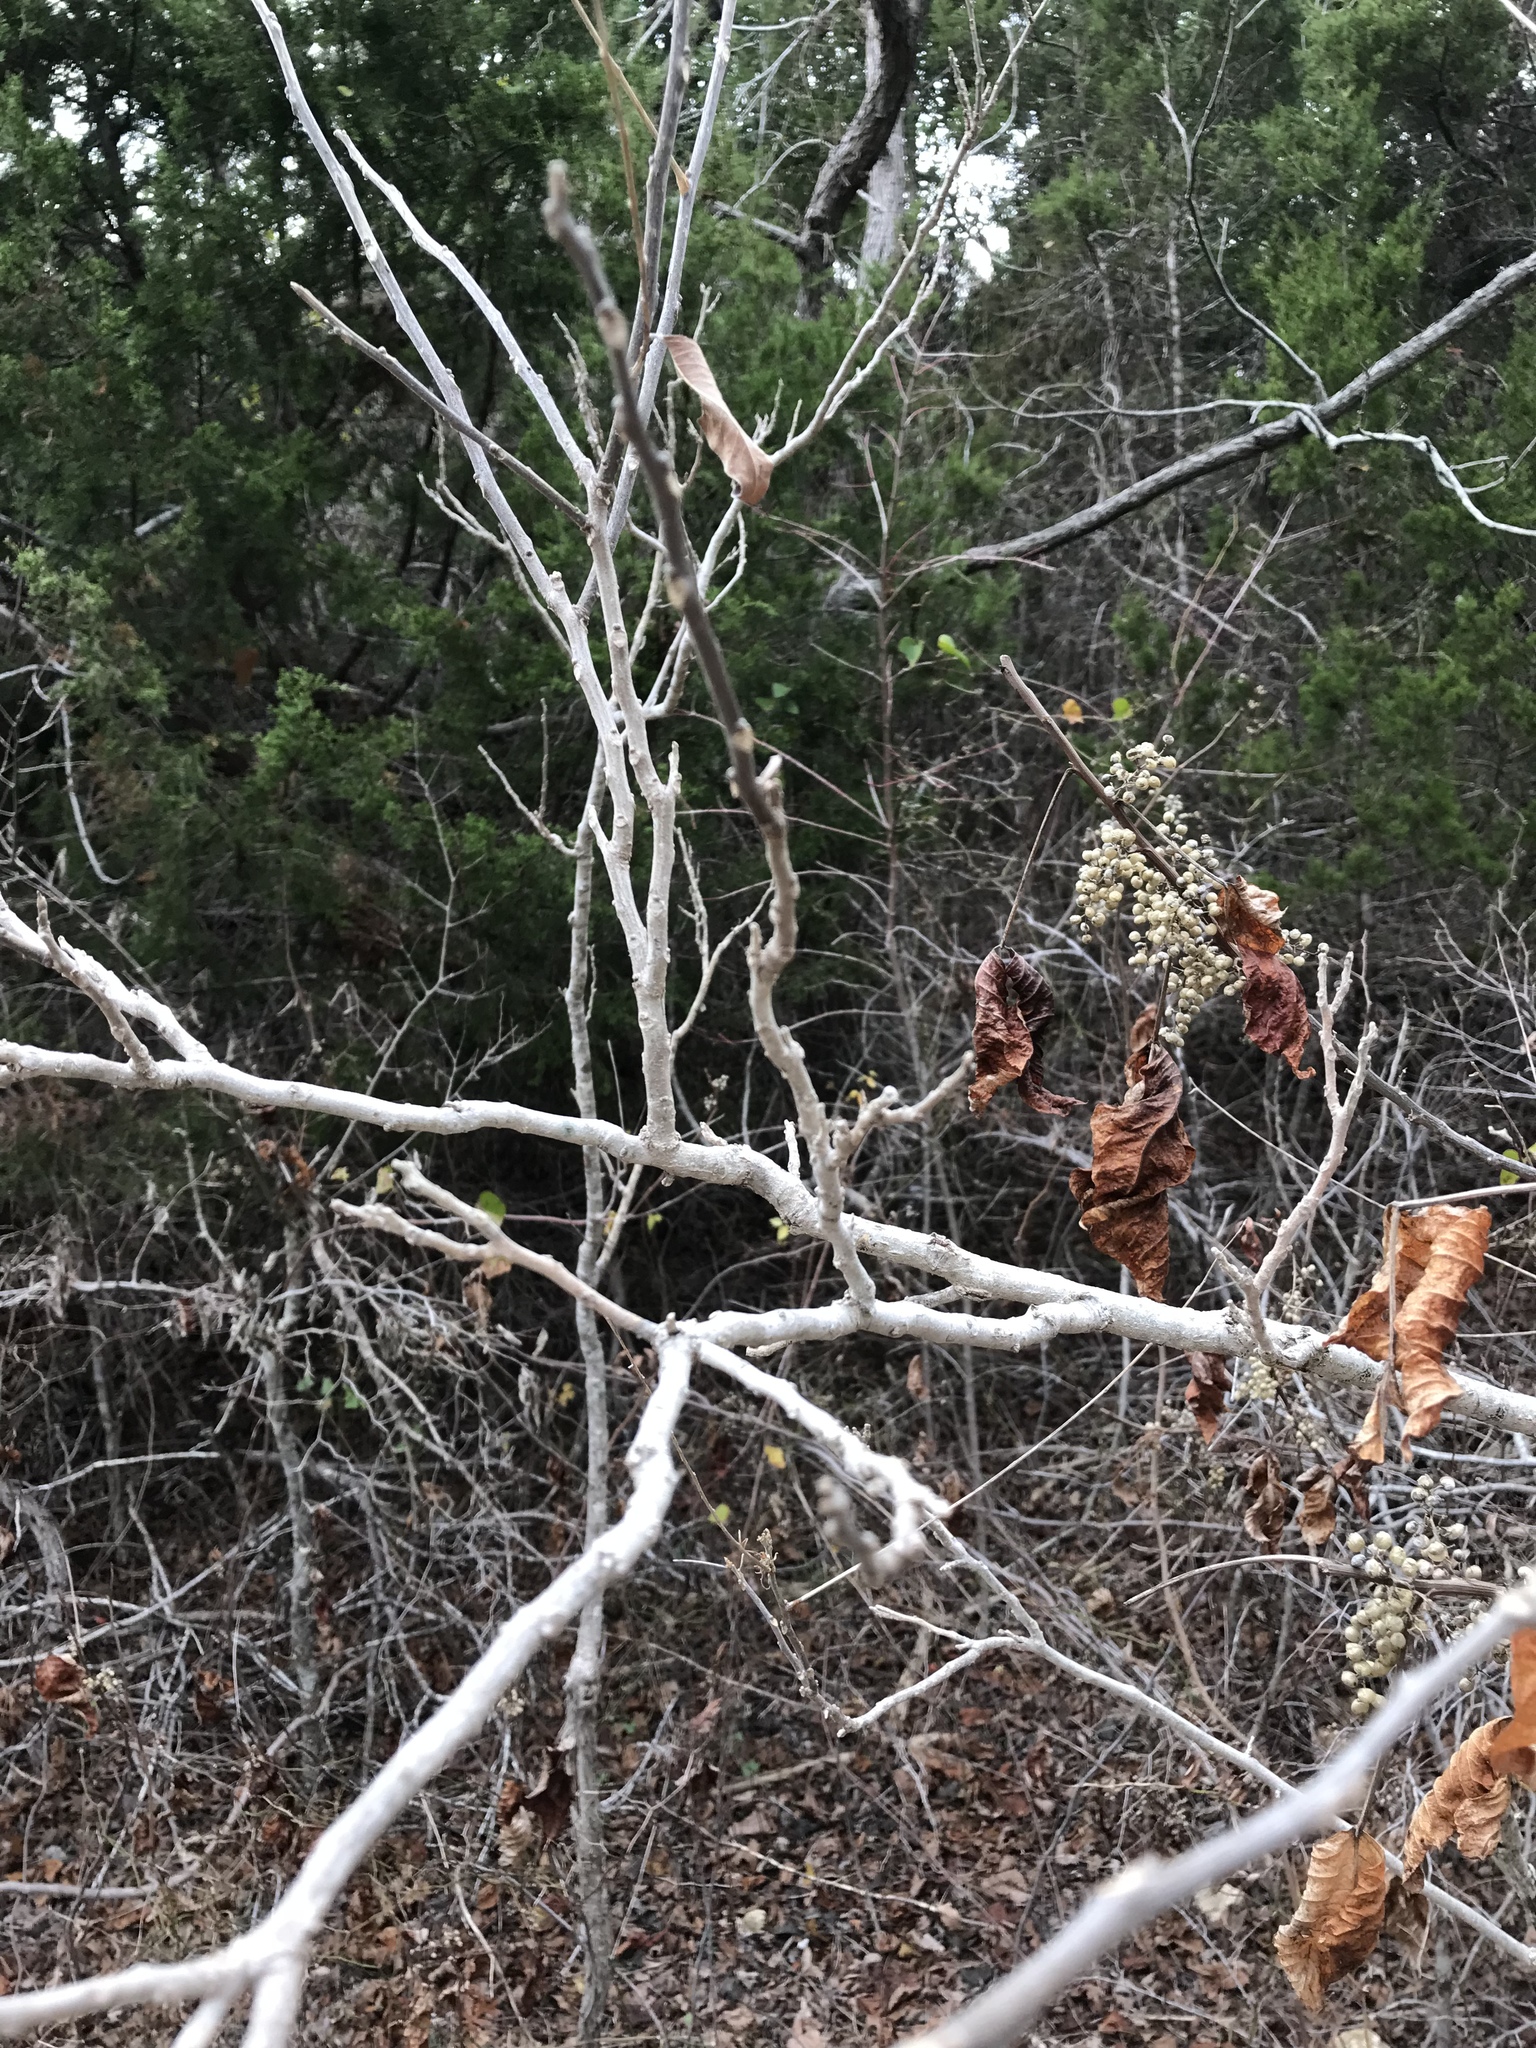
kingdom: Plantae
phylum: Tracheophyta
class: Magnoliopsida
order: Sapindales
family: Sapindaceae
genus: Sapindus
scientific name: Sapindus drummondii
